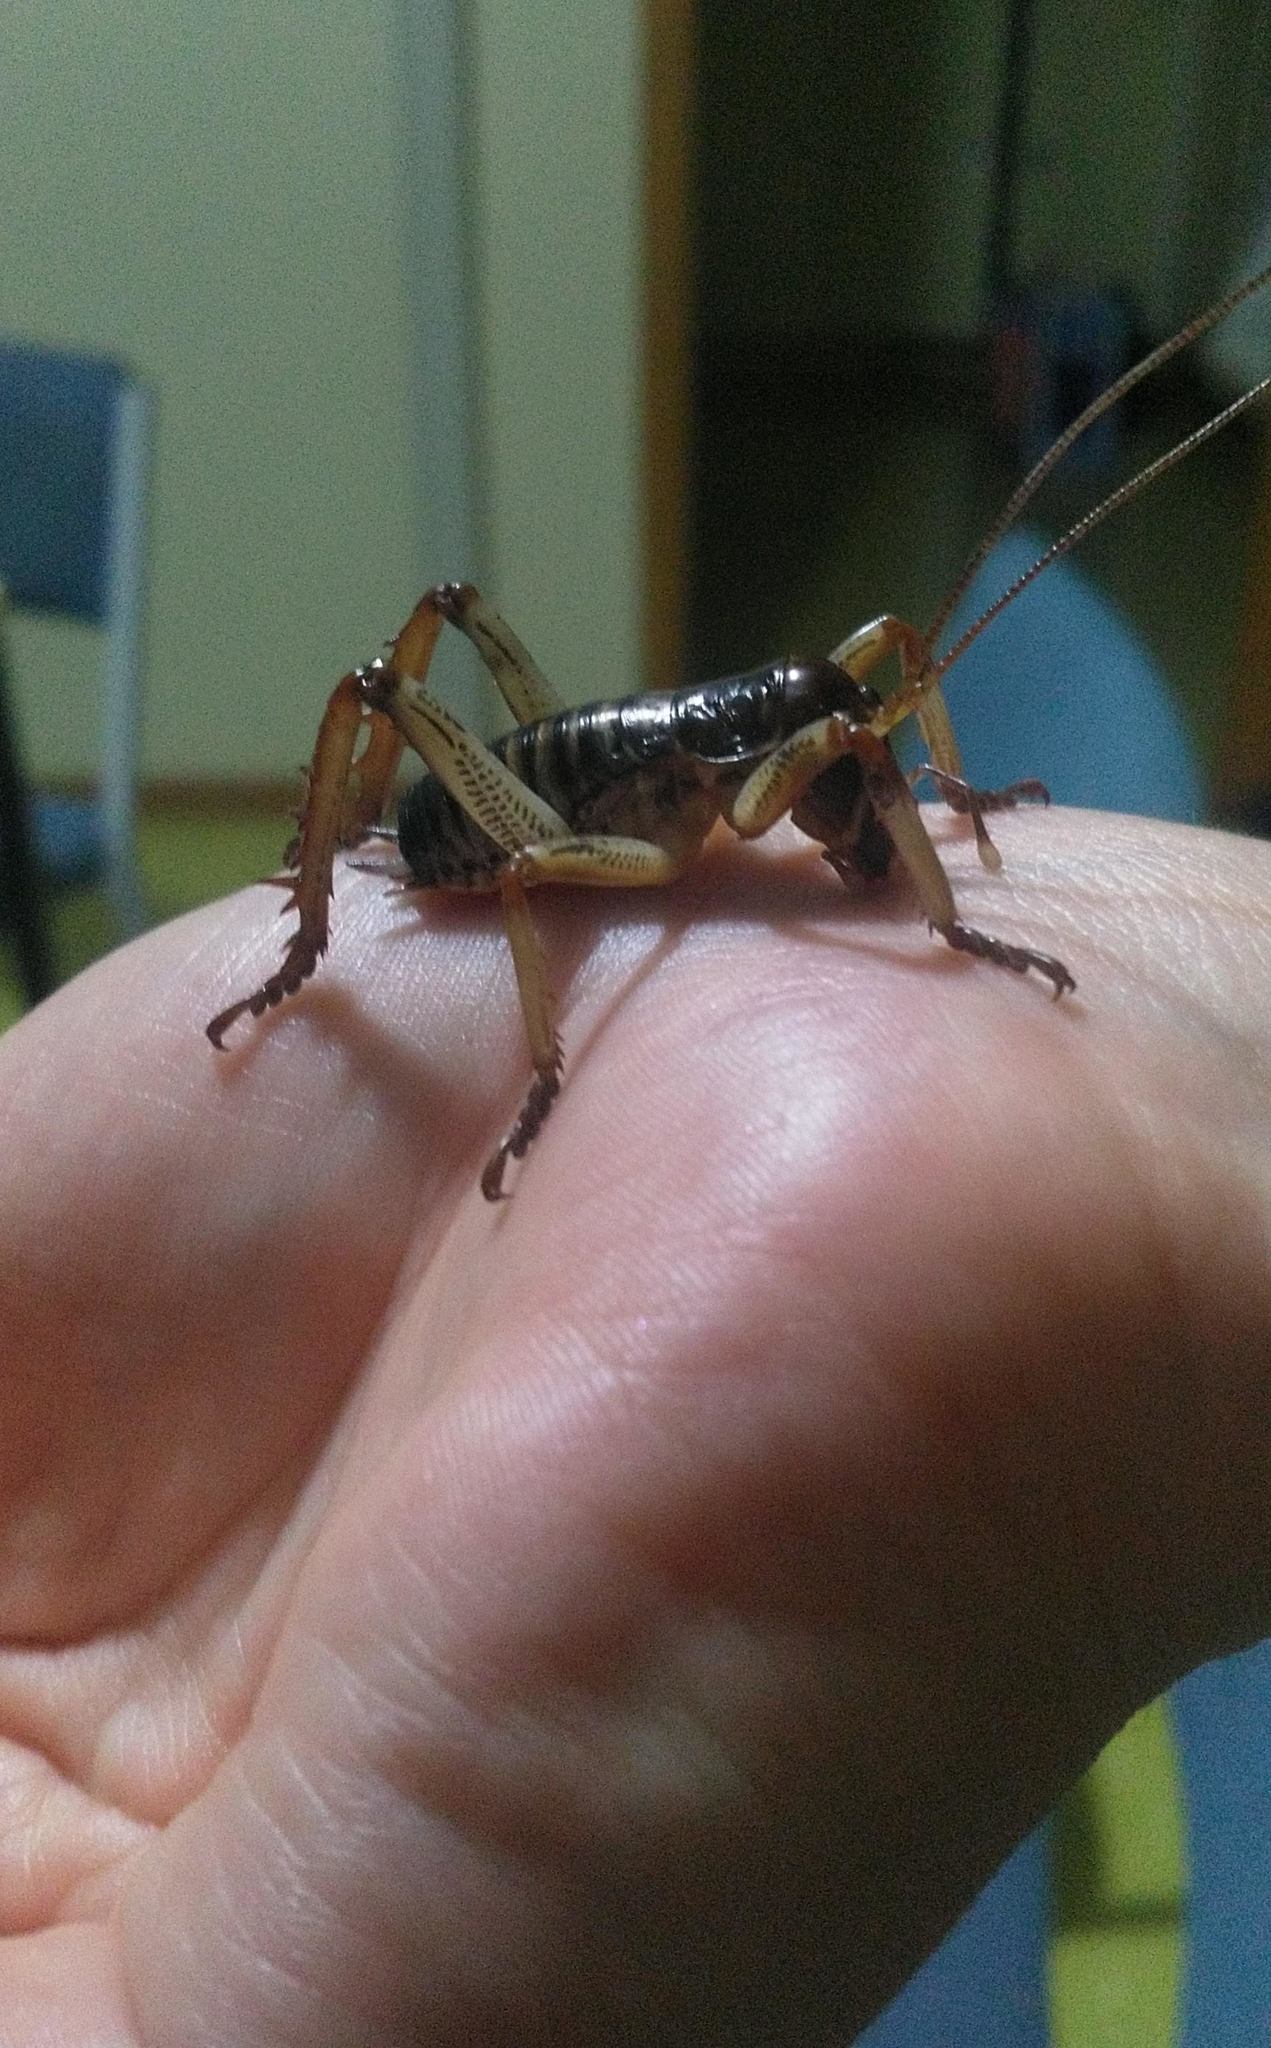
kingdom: Animalia
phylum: Arthropoda
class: Insecta
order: Orthoptera
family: Anostostomatidae
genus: Hemideina
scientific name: Hemideina crassidens
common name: Wellington tree weta
